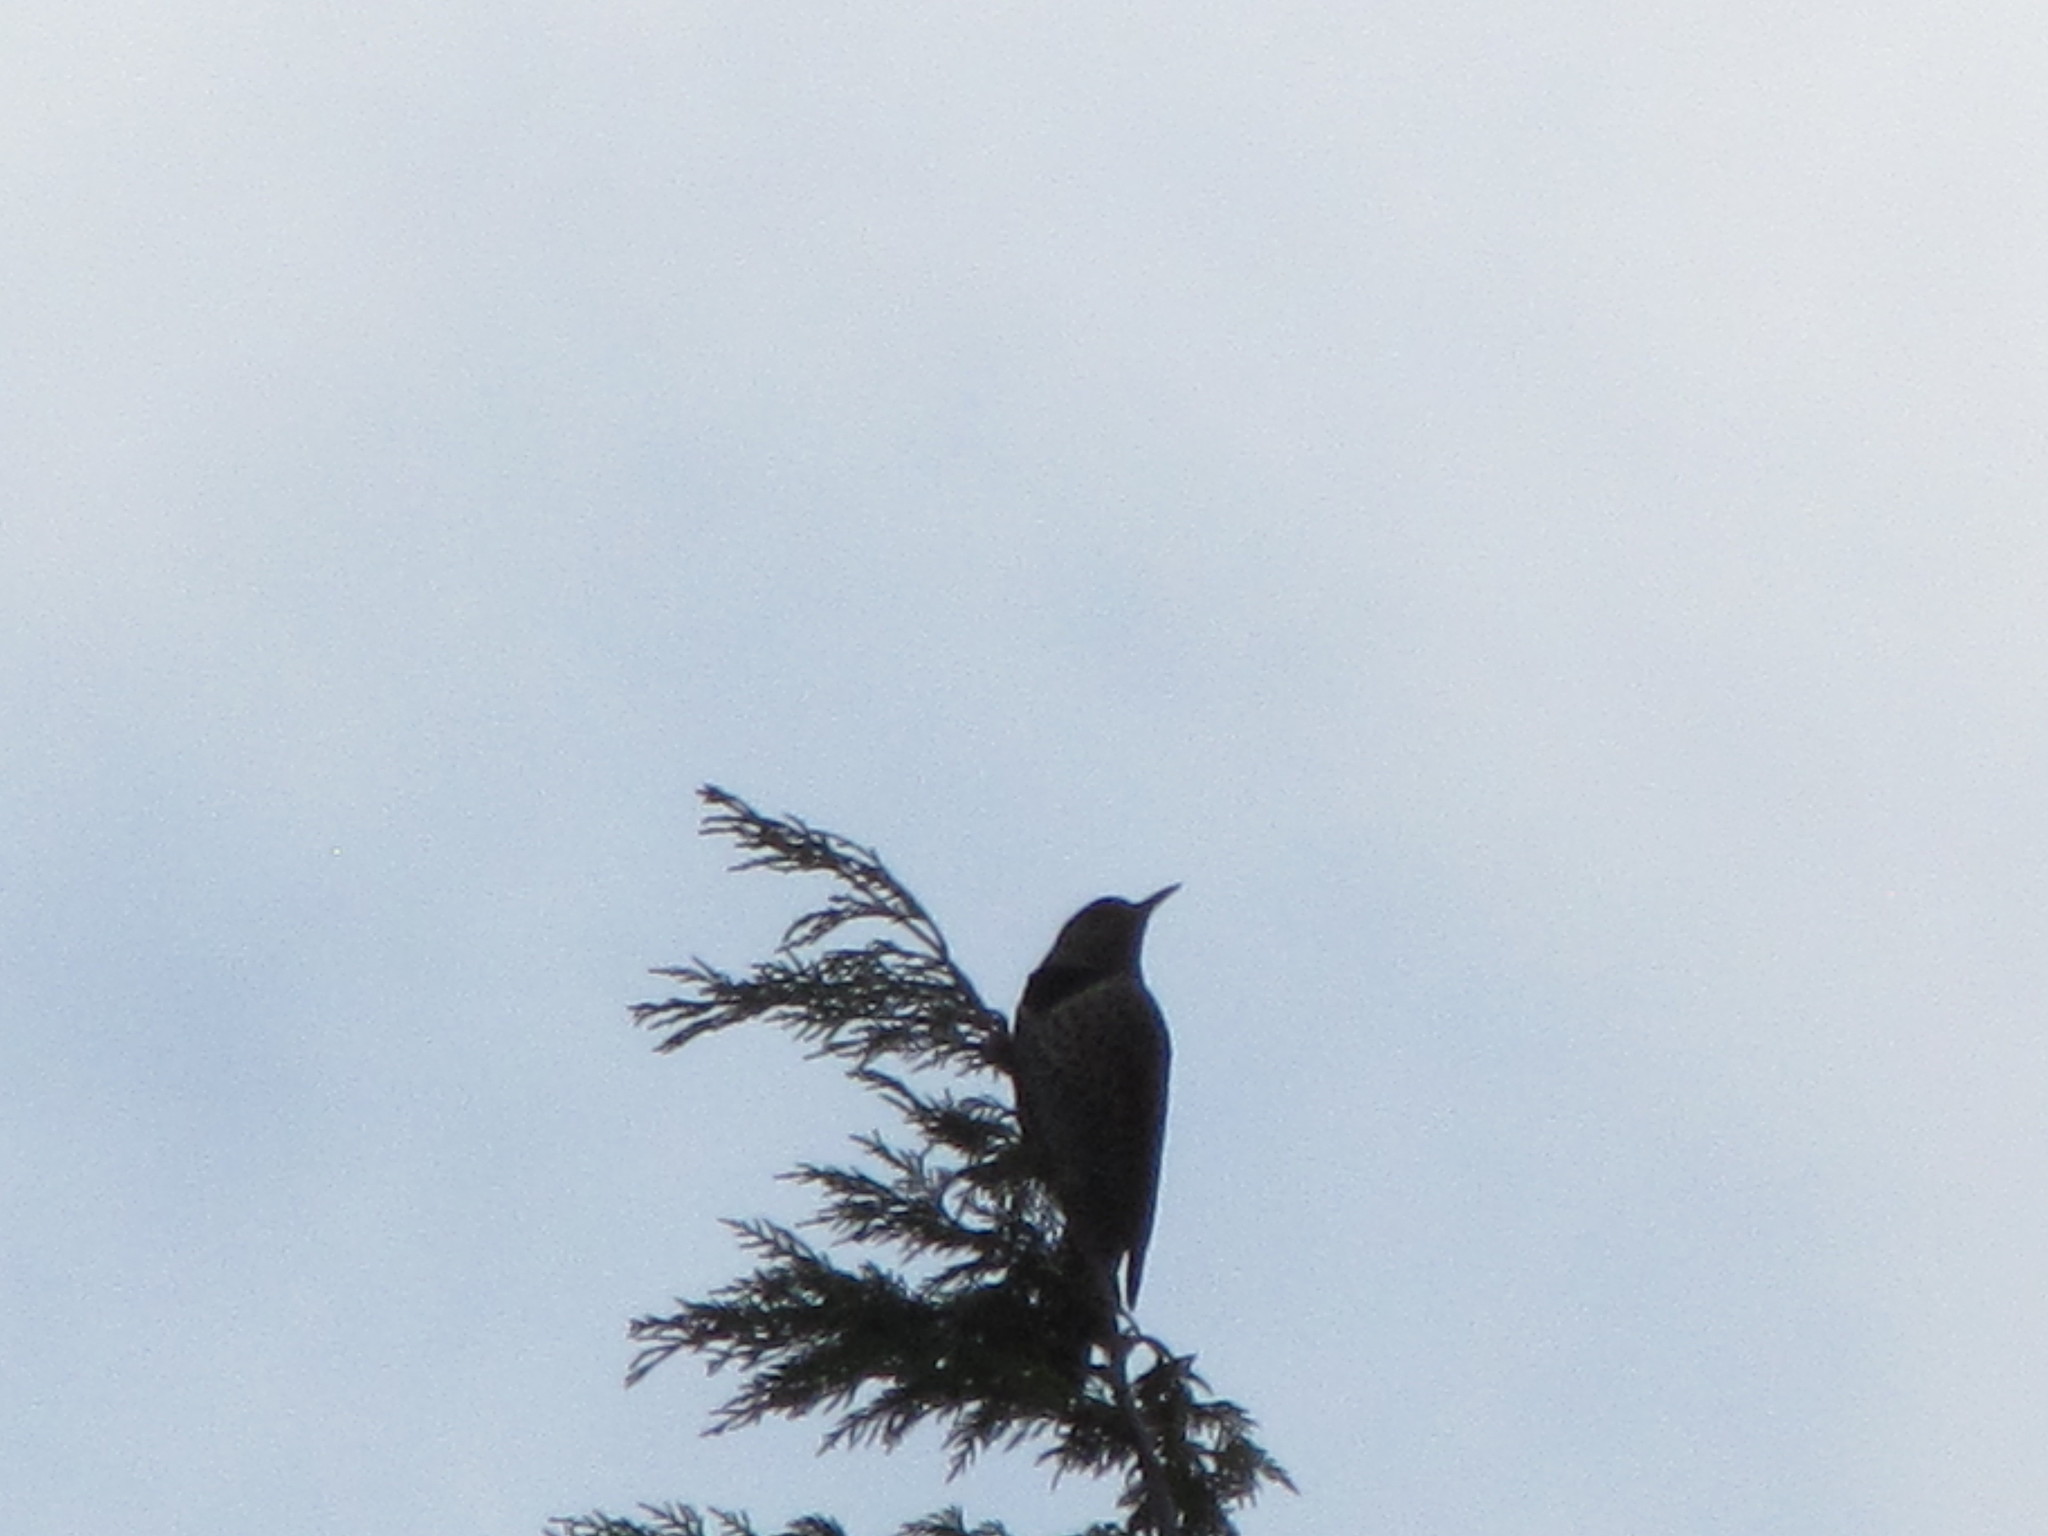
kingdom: Animalia
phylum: Chordata
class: Aves
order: Piciformes
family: Picidae
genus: Colaptes
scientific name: Colaptes auratus
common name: Northern flicker
